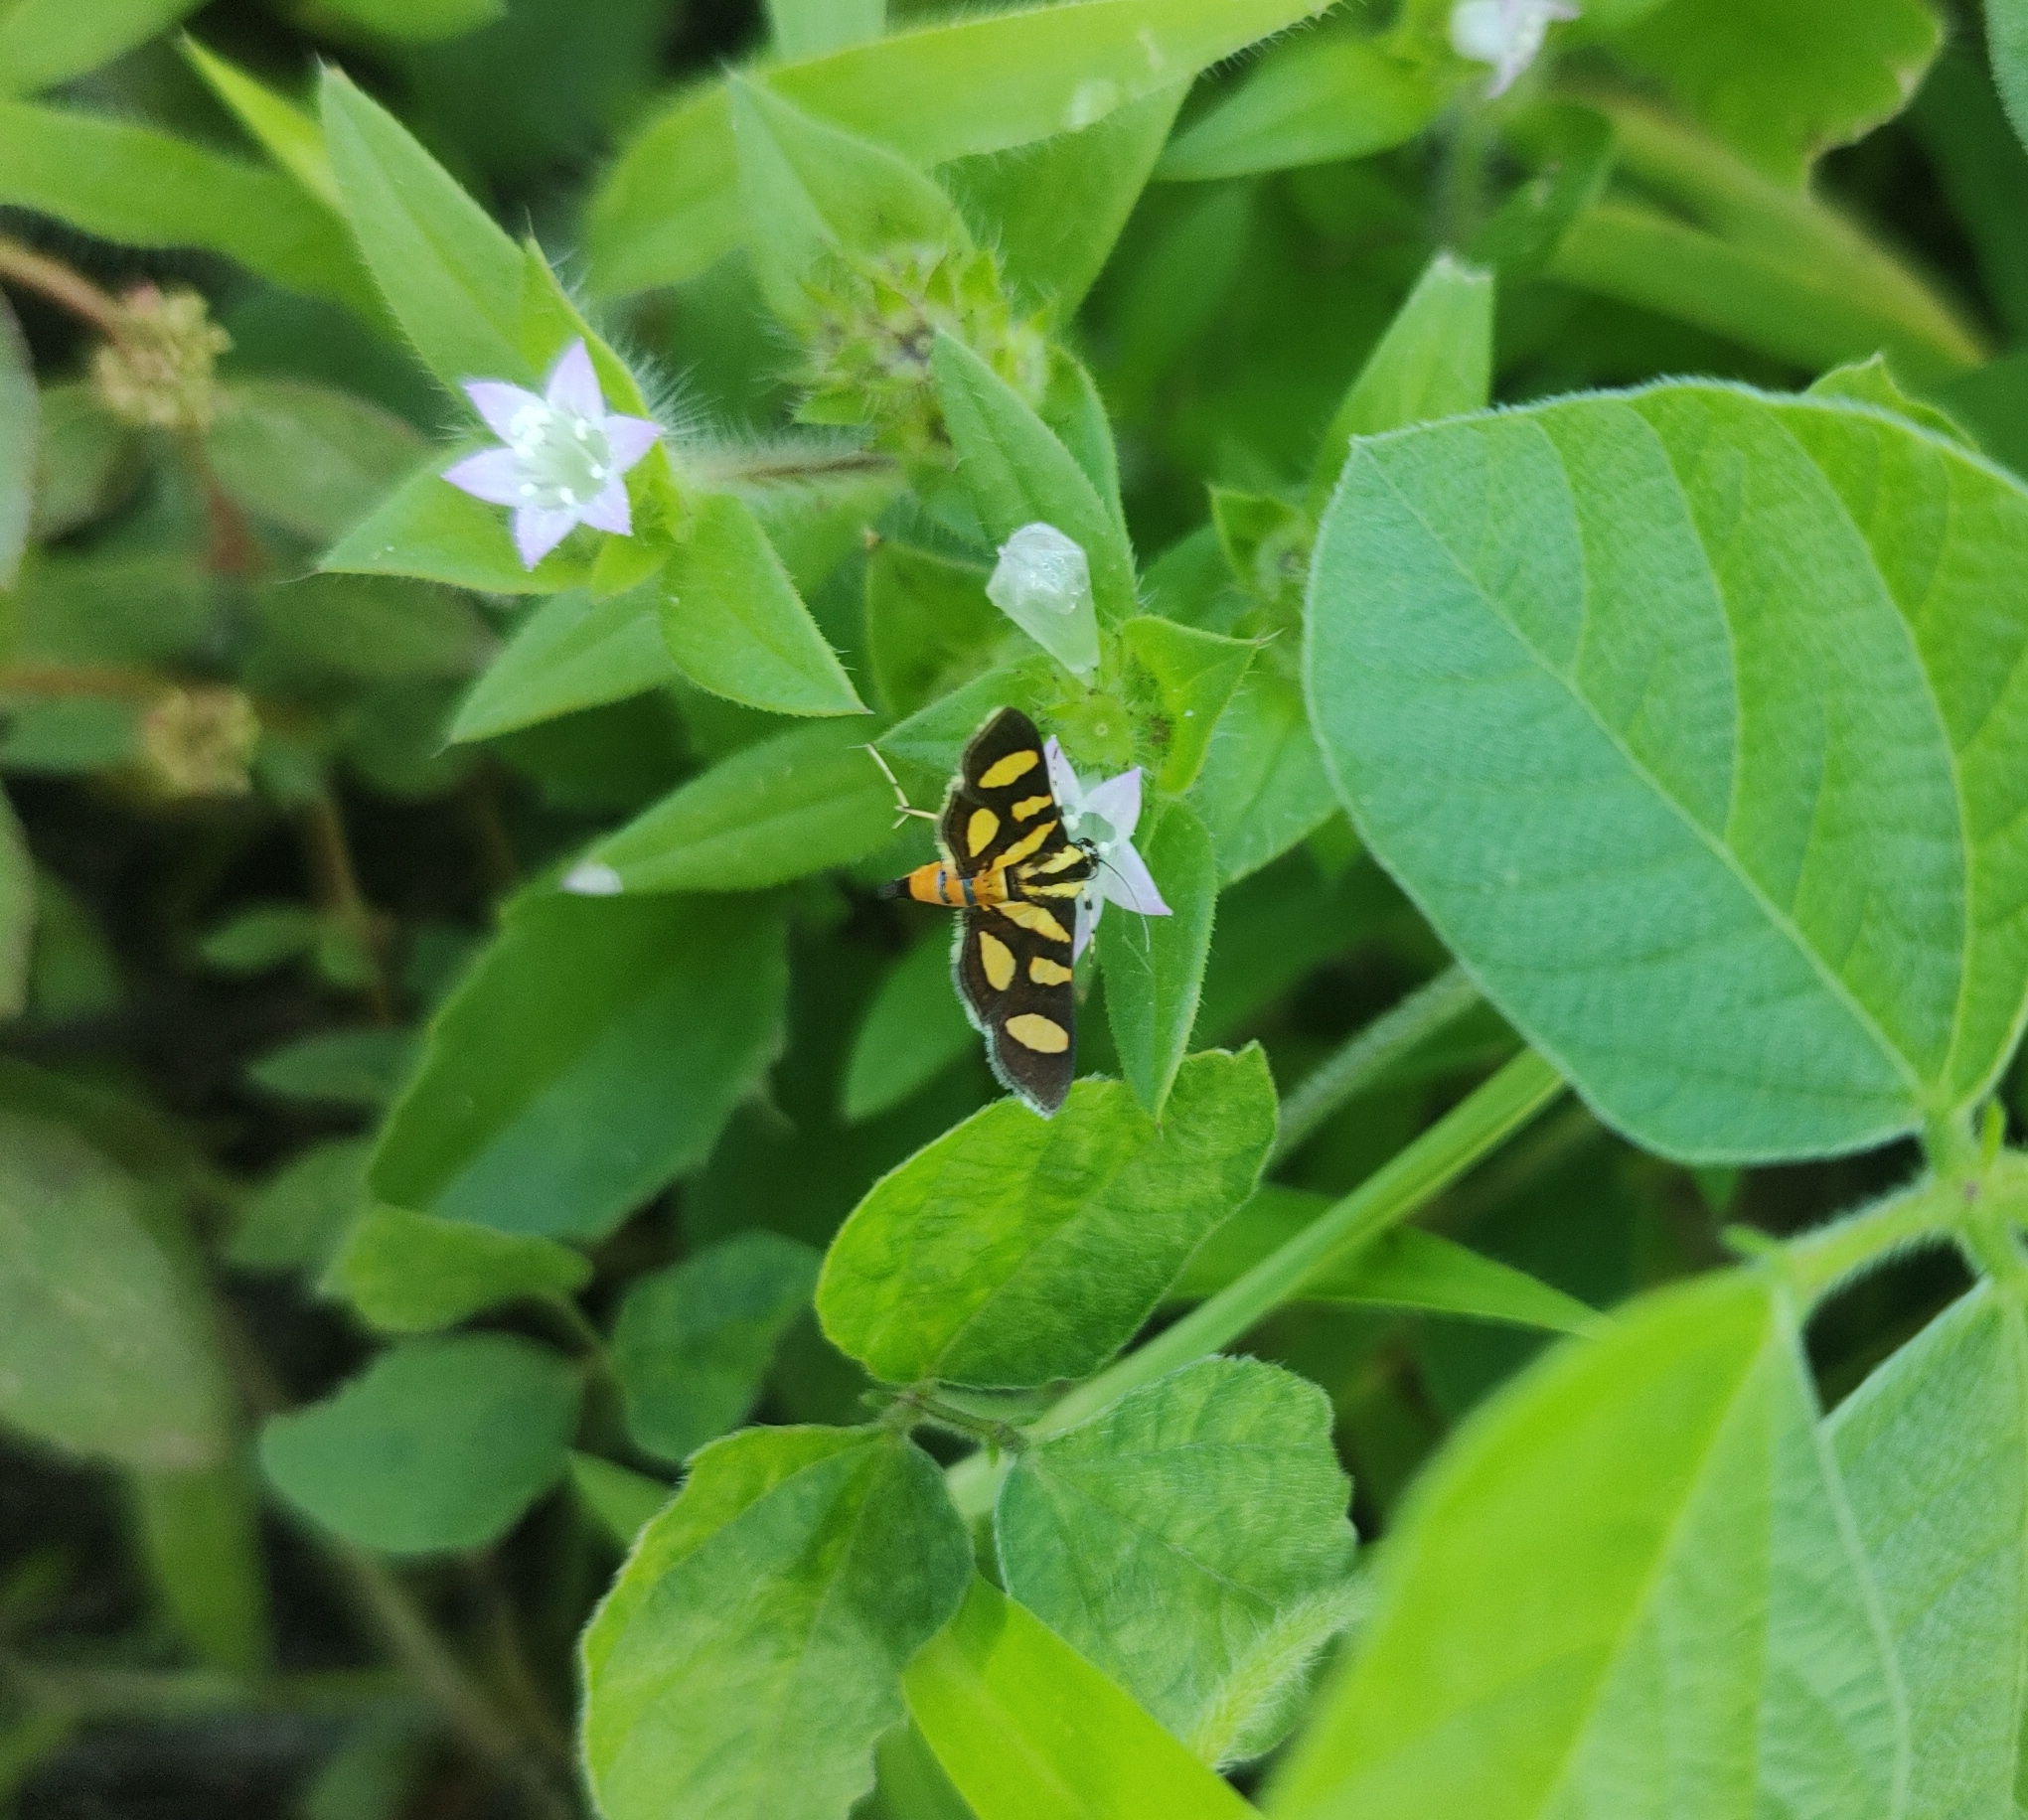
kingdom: Animalia
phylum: Arthropoda
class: Insecta
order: Lepidoptera
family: Crambidae
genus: Syngamia
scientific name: Syngamia florella
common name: Orange-spotted flower moth
